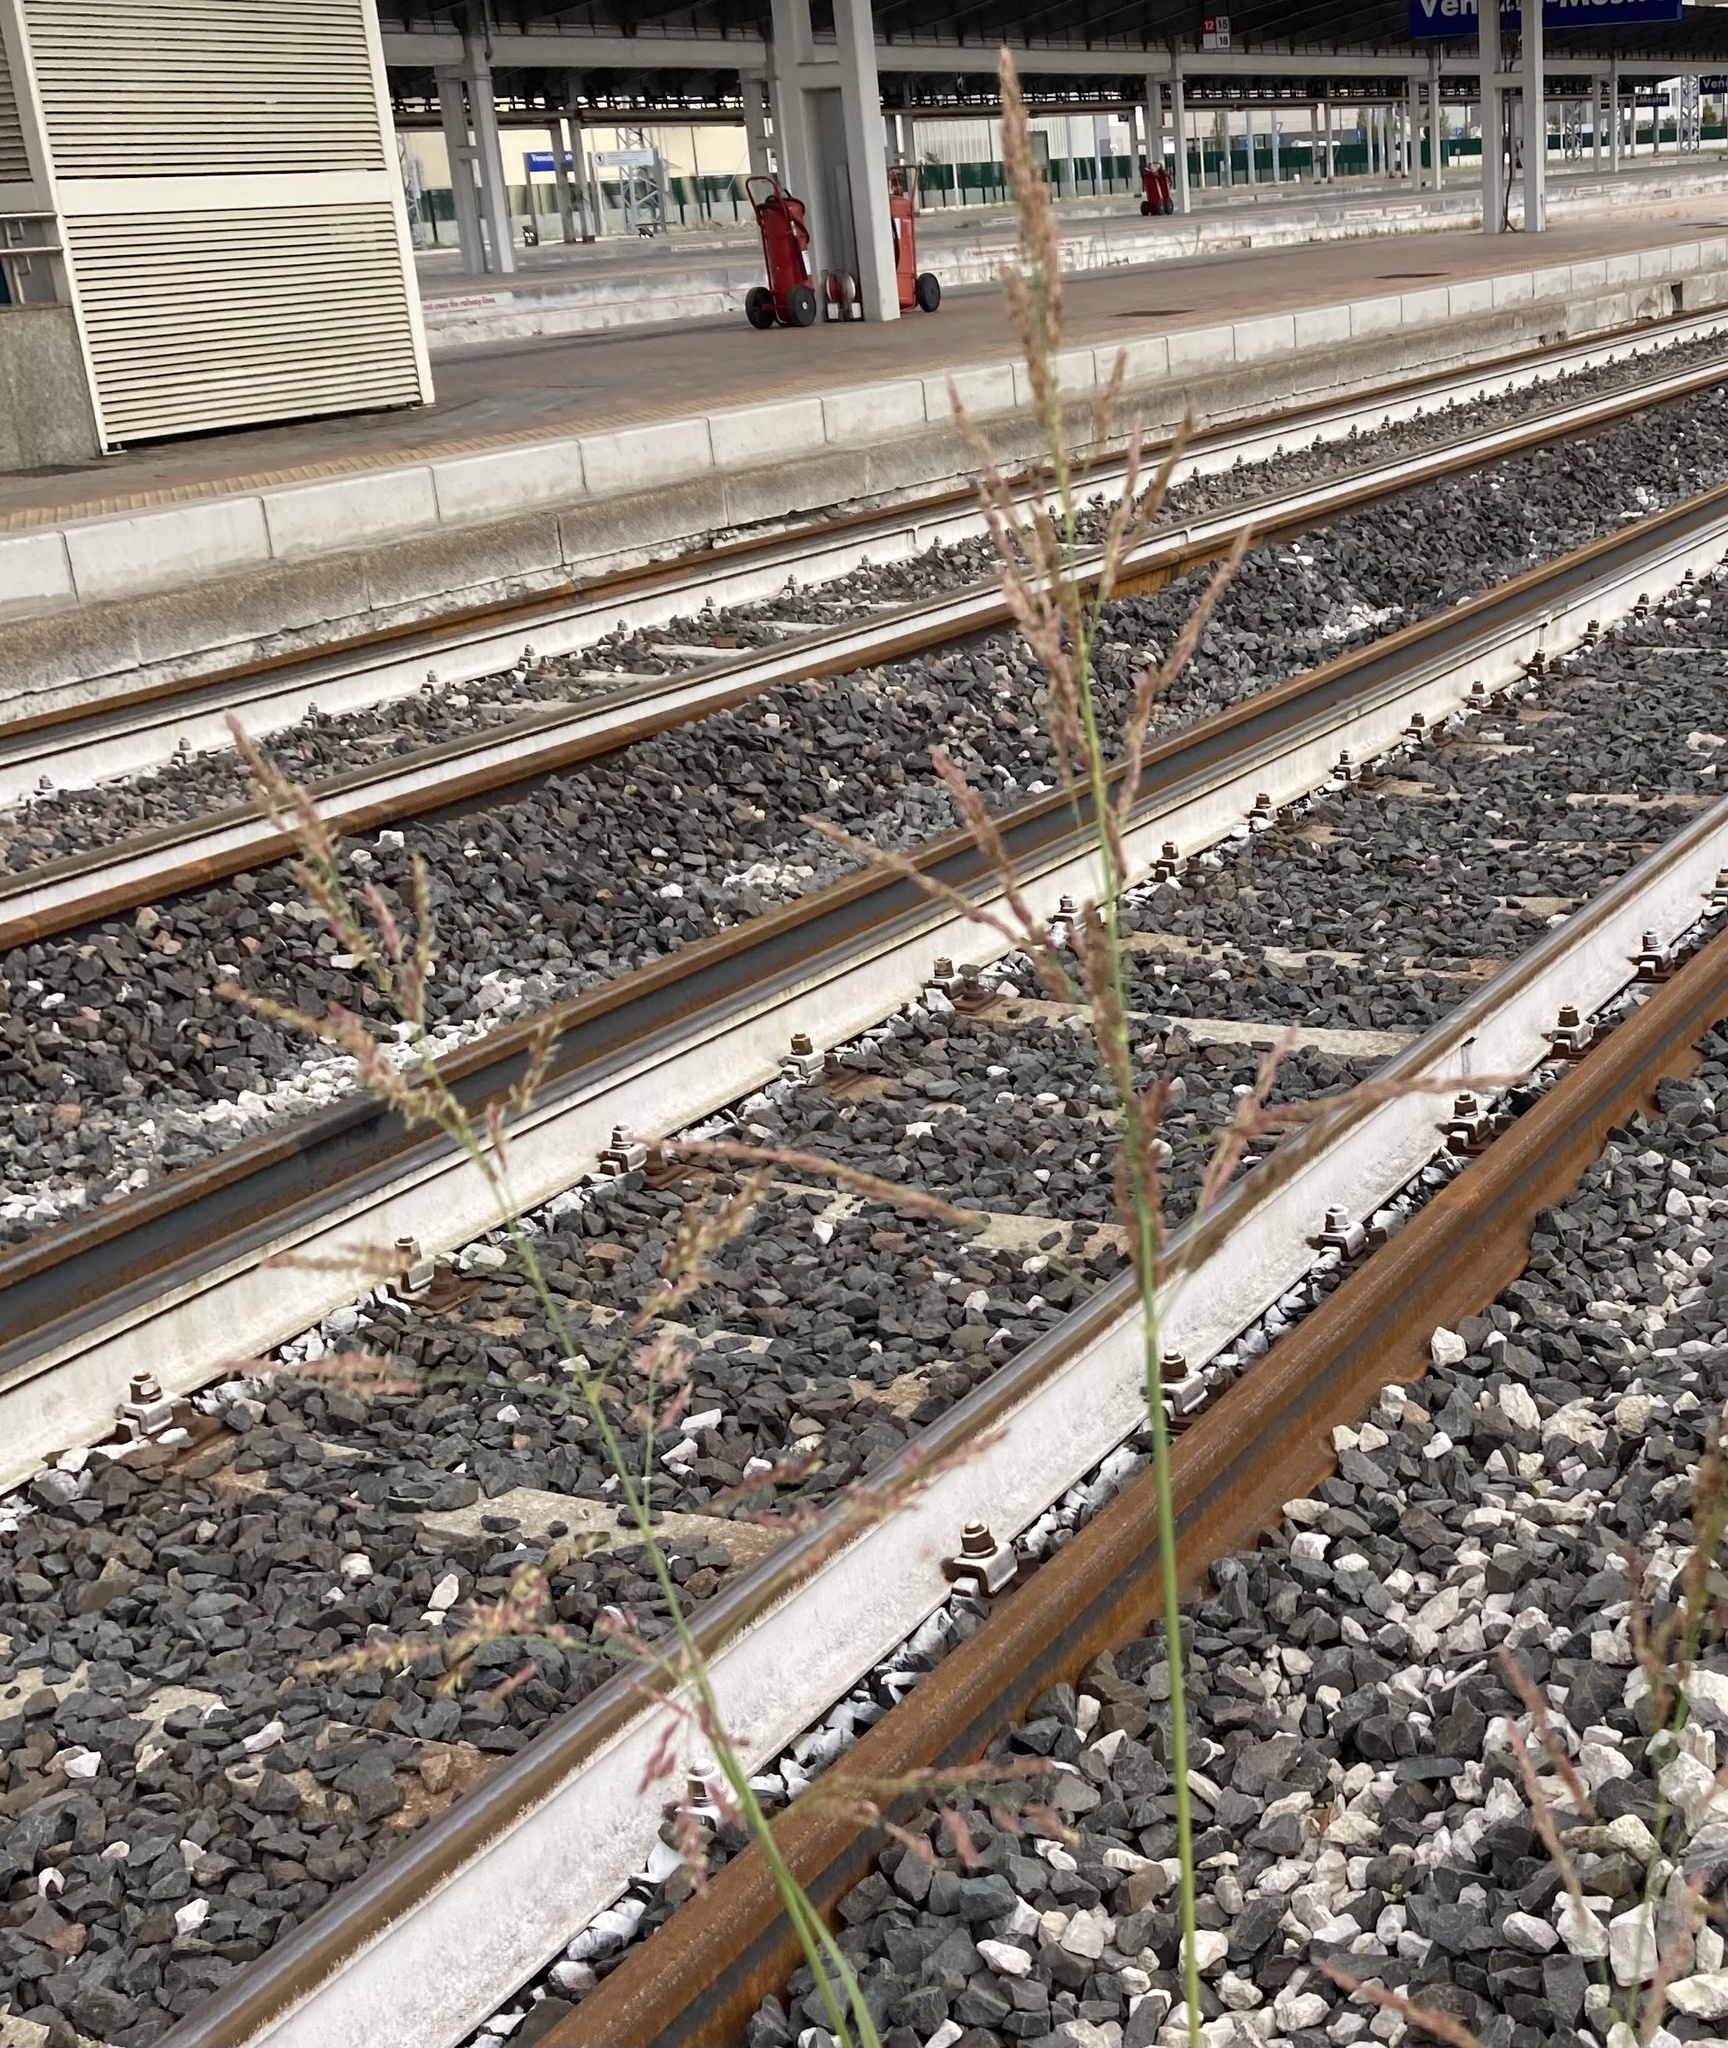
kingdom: Plantae
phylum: Tracheophyta
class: Liliopsida
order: Poales
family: Poaceae
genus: Sorghum
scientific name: Sorghum halepense
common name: Johnson-grass
